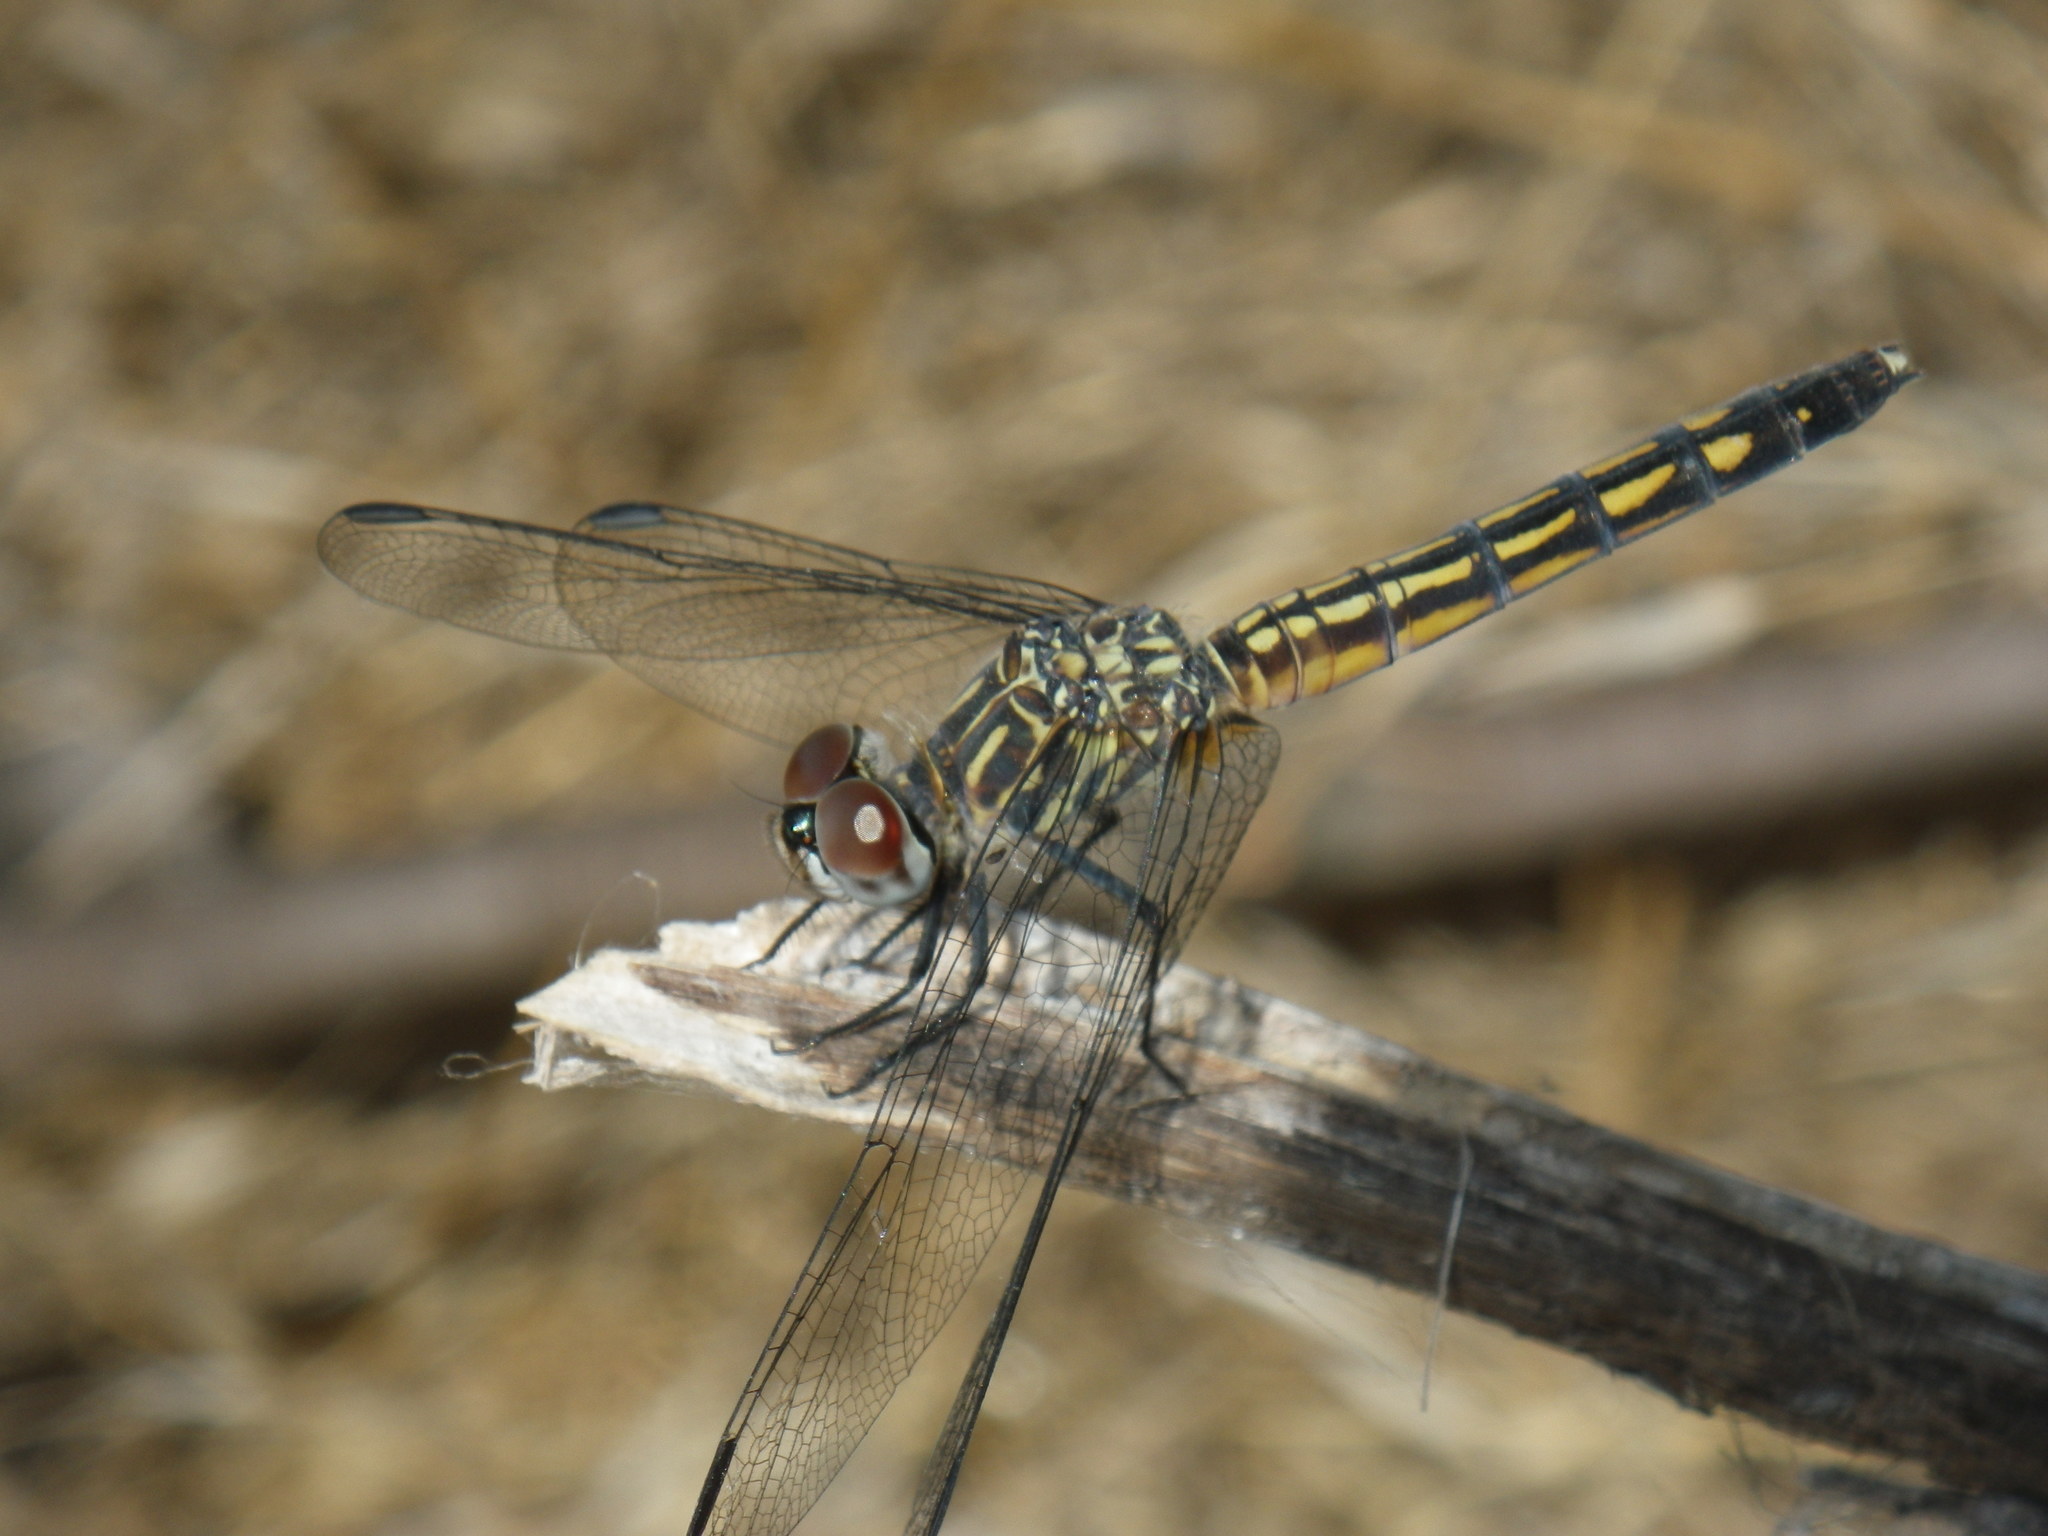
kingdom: Animalia
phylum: Arthropoda
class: Insecta
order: Odonata
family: Libellulidae
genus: Pachydiplax
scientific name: Pachydiplax longipennis
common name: Blue dasher
